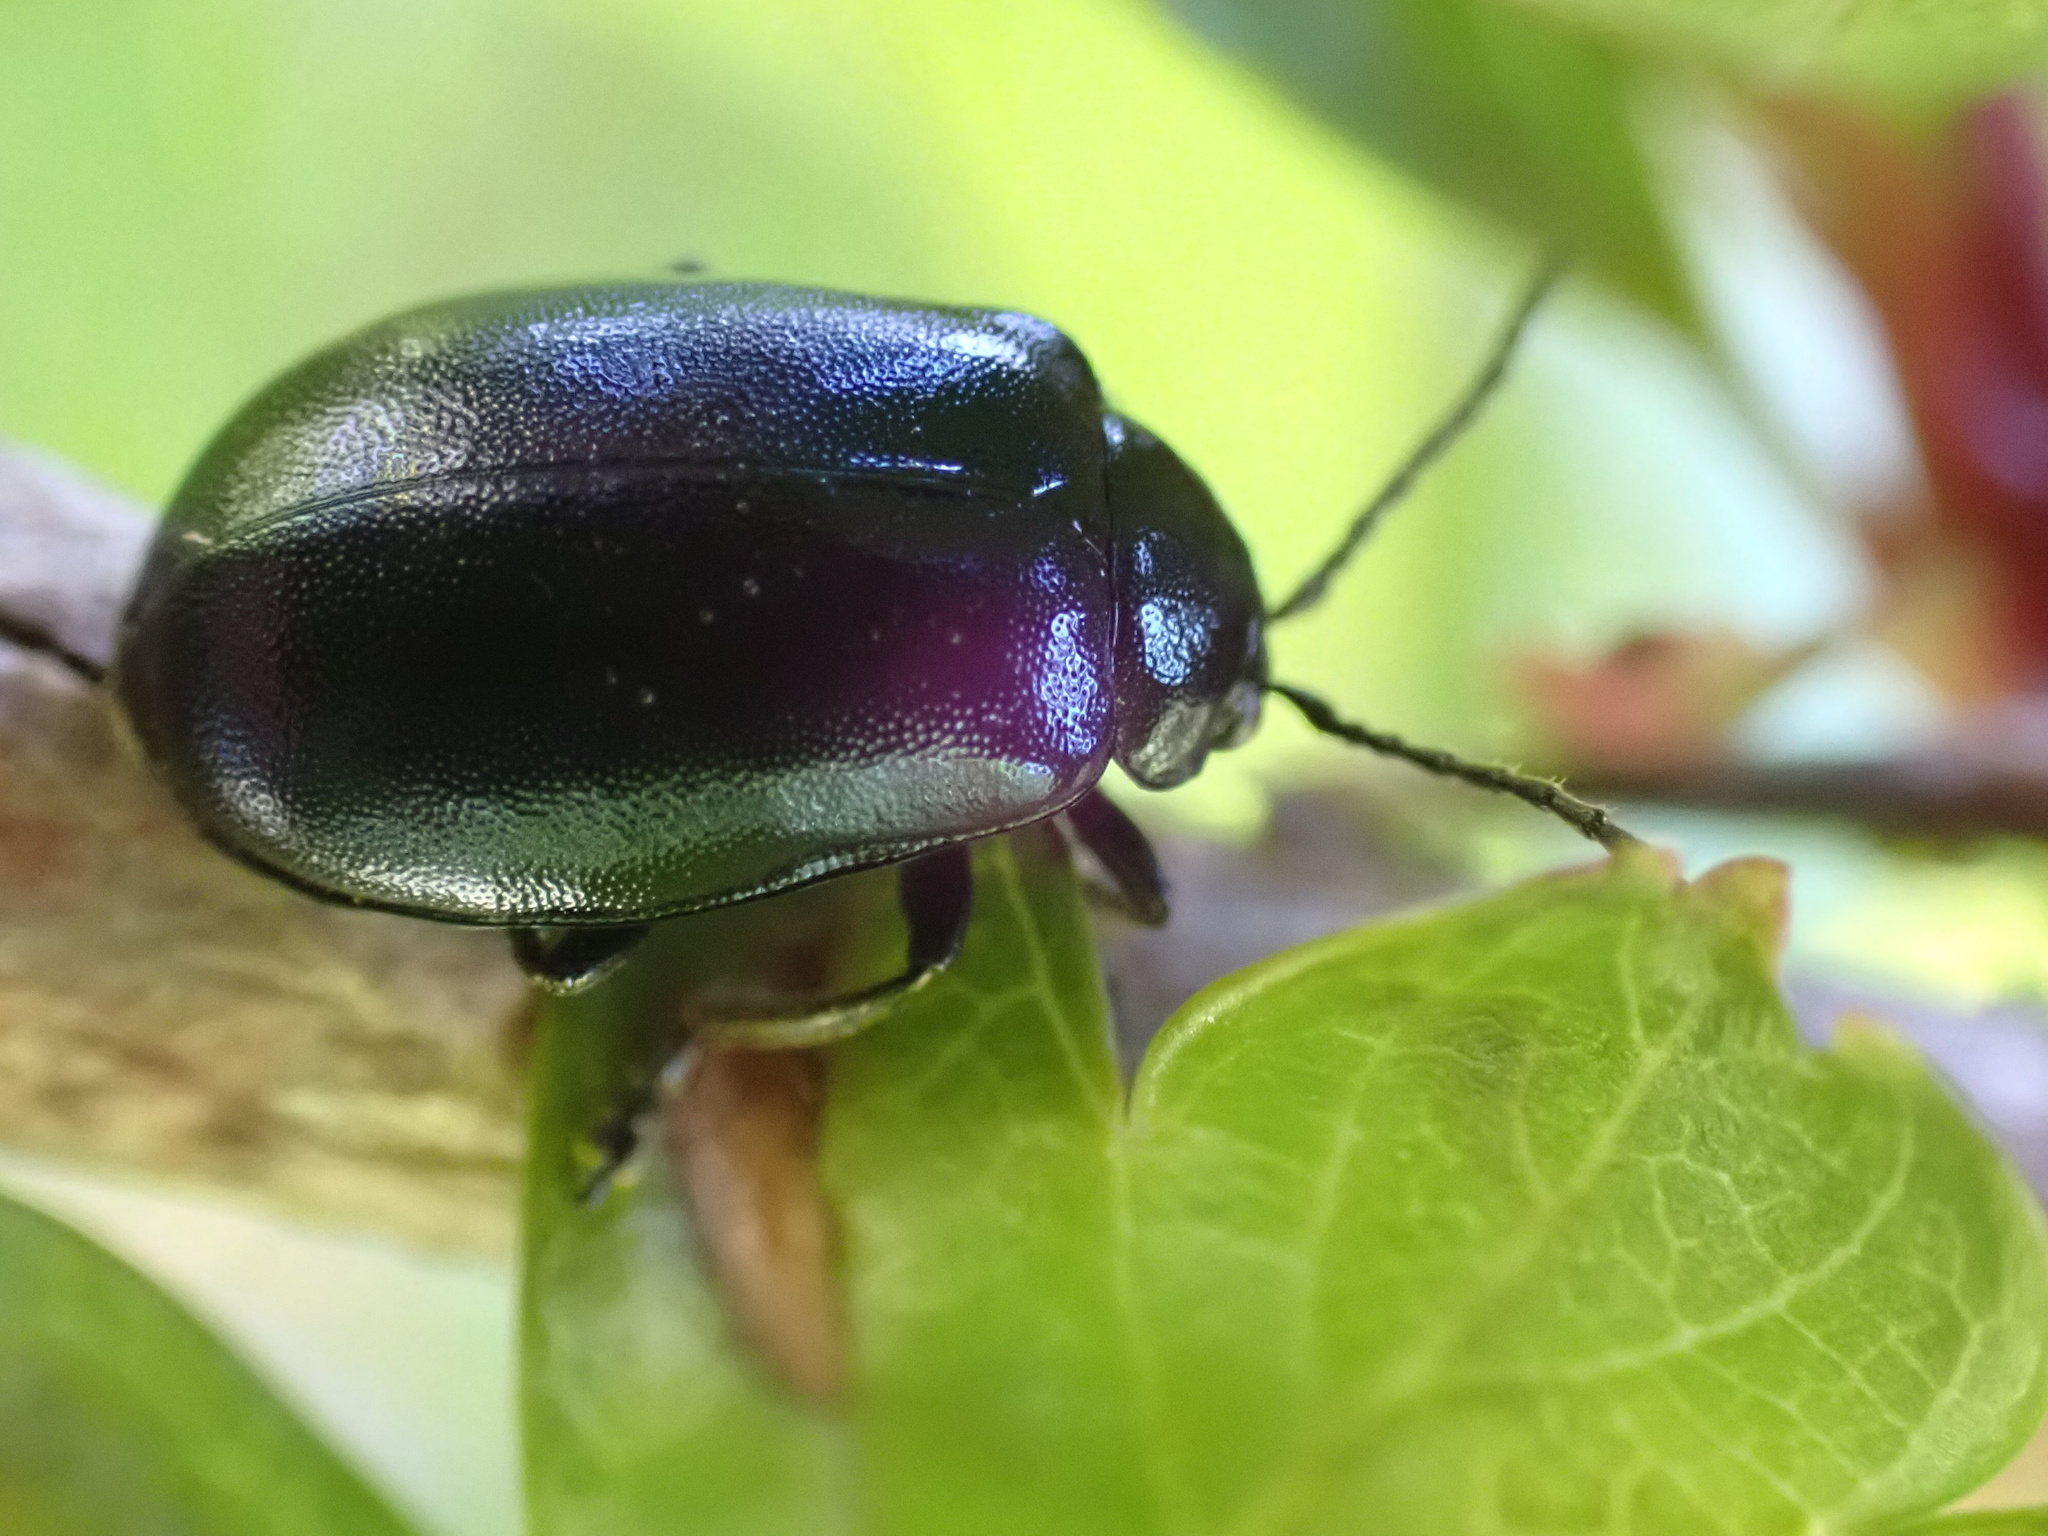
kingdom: Animalia
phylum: Arthropoda
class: Insecta
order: Coleoptera
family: Chrysomelidae
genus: Agelastica
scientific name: Agelastica alni
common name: Alder leaf beetle
